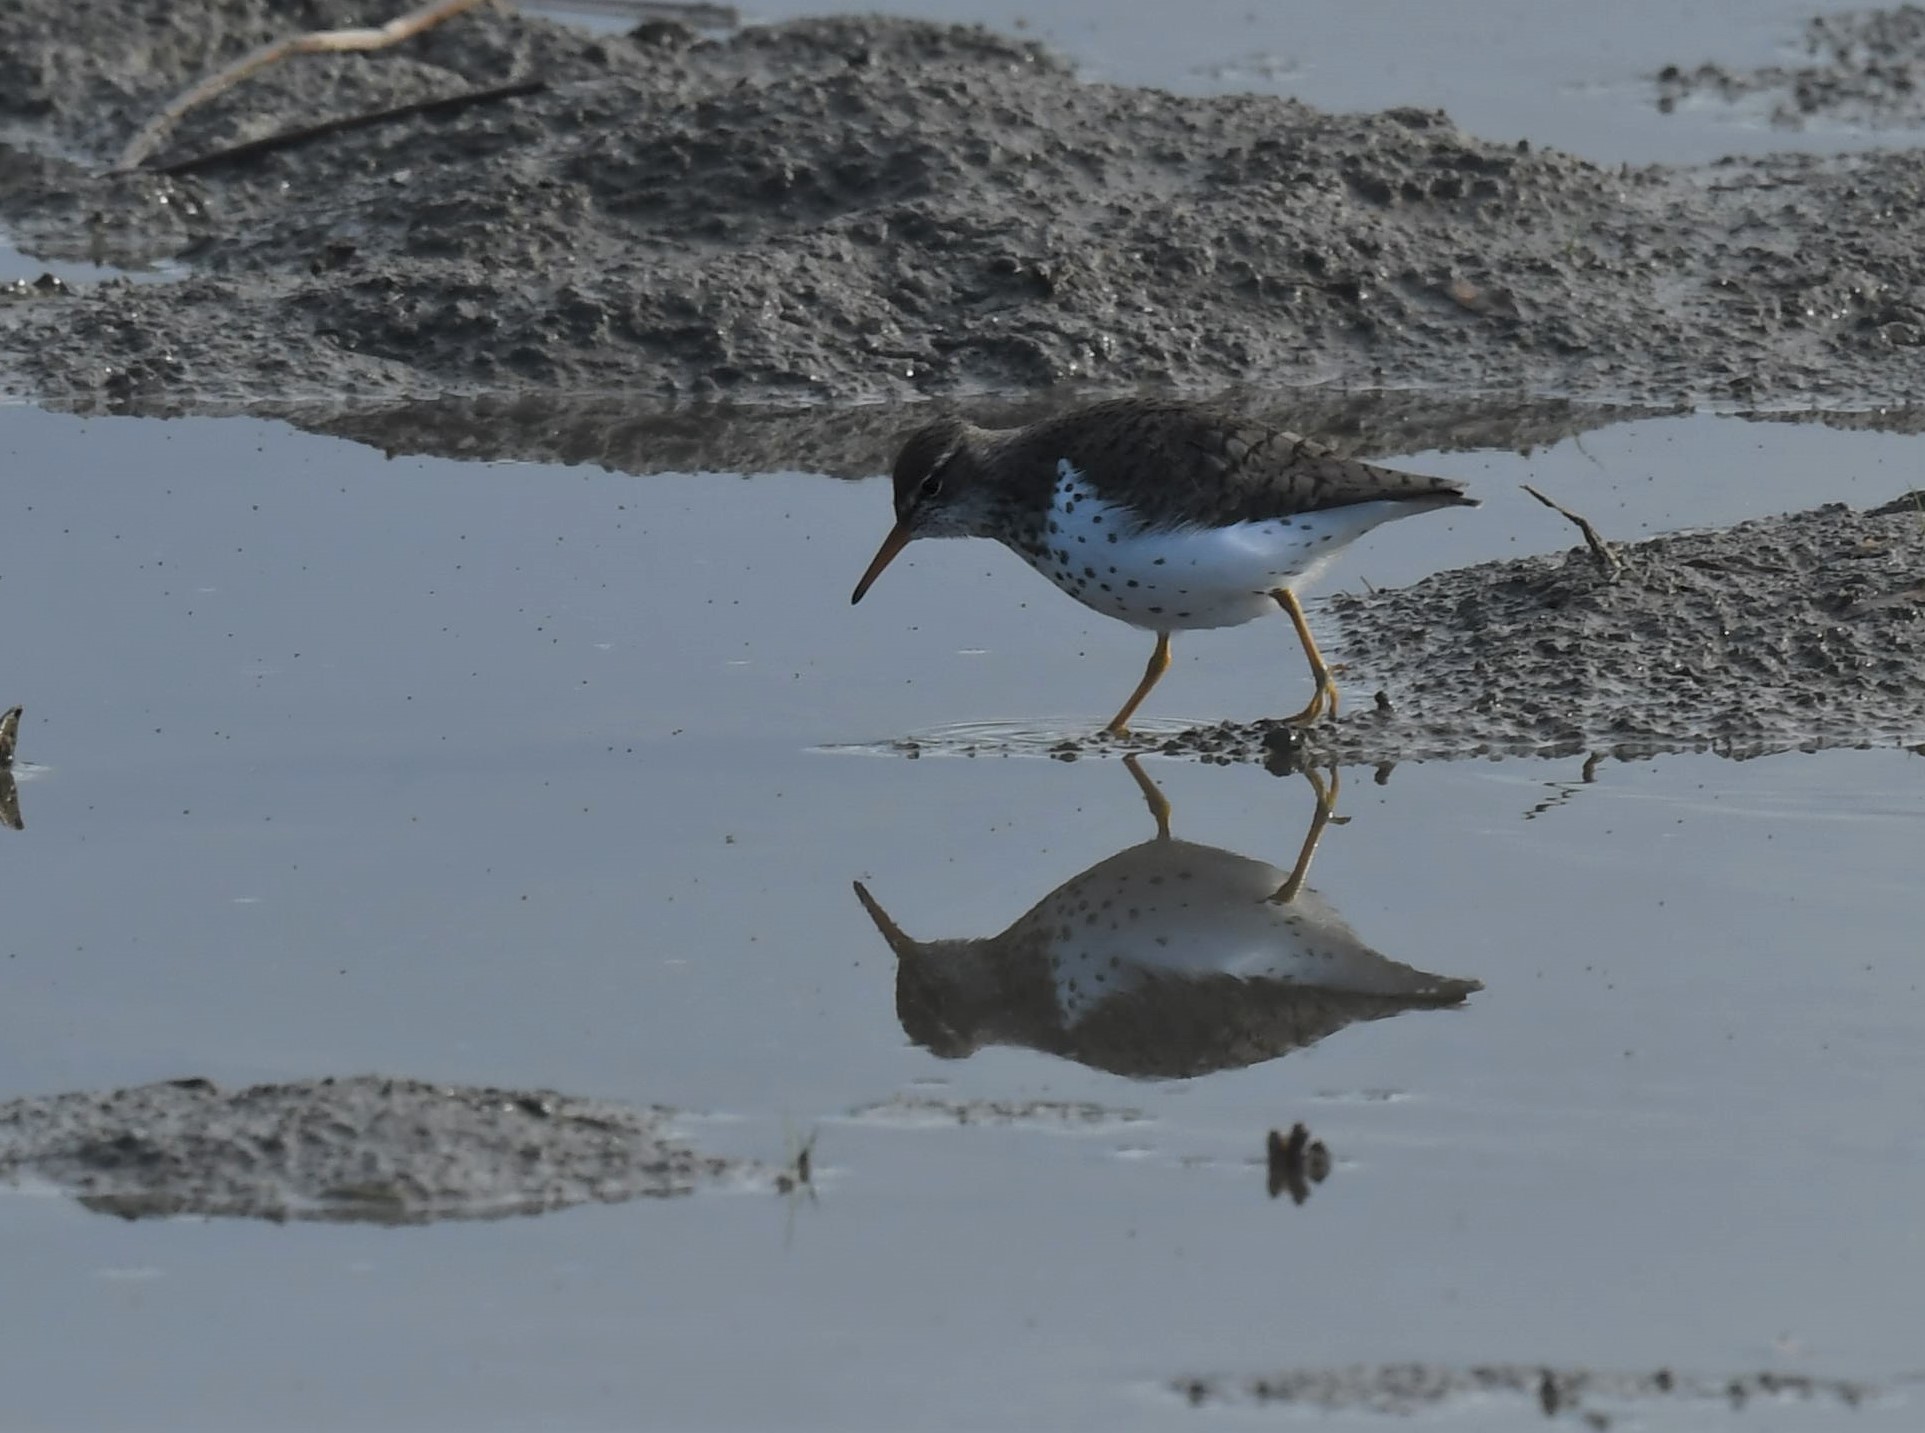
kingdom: Animalia
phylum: Chordata
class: Aves
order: Charadriiformes
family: Scolopacidae
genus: Actitis
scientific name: Actitis macularius
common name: Spotted sandpiper
